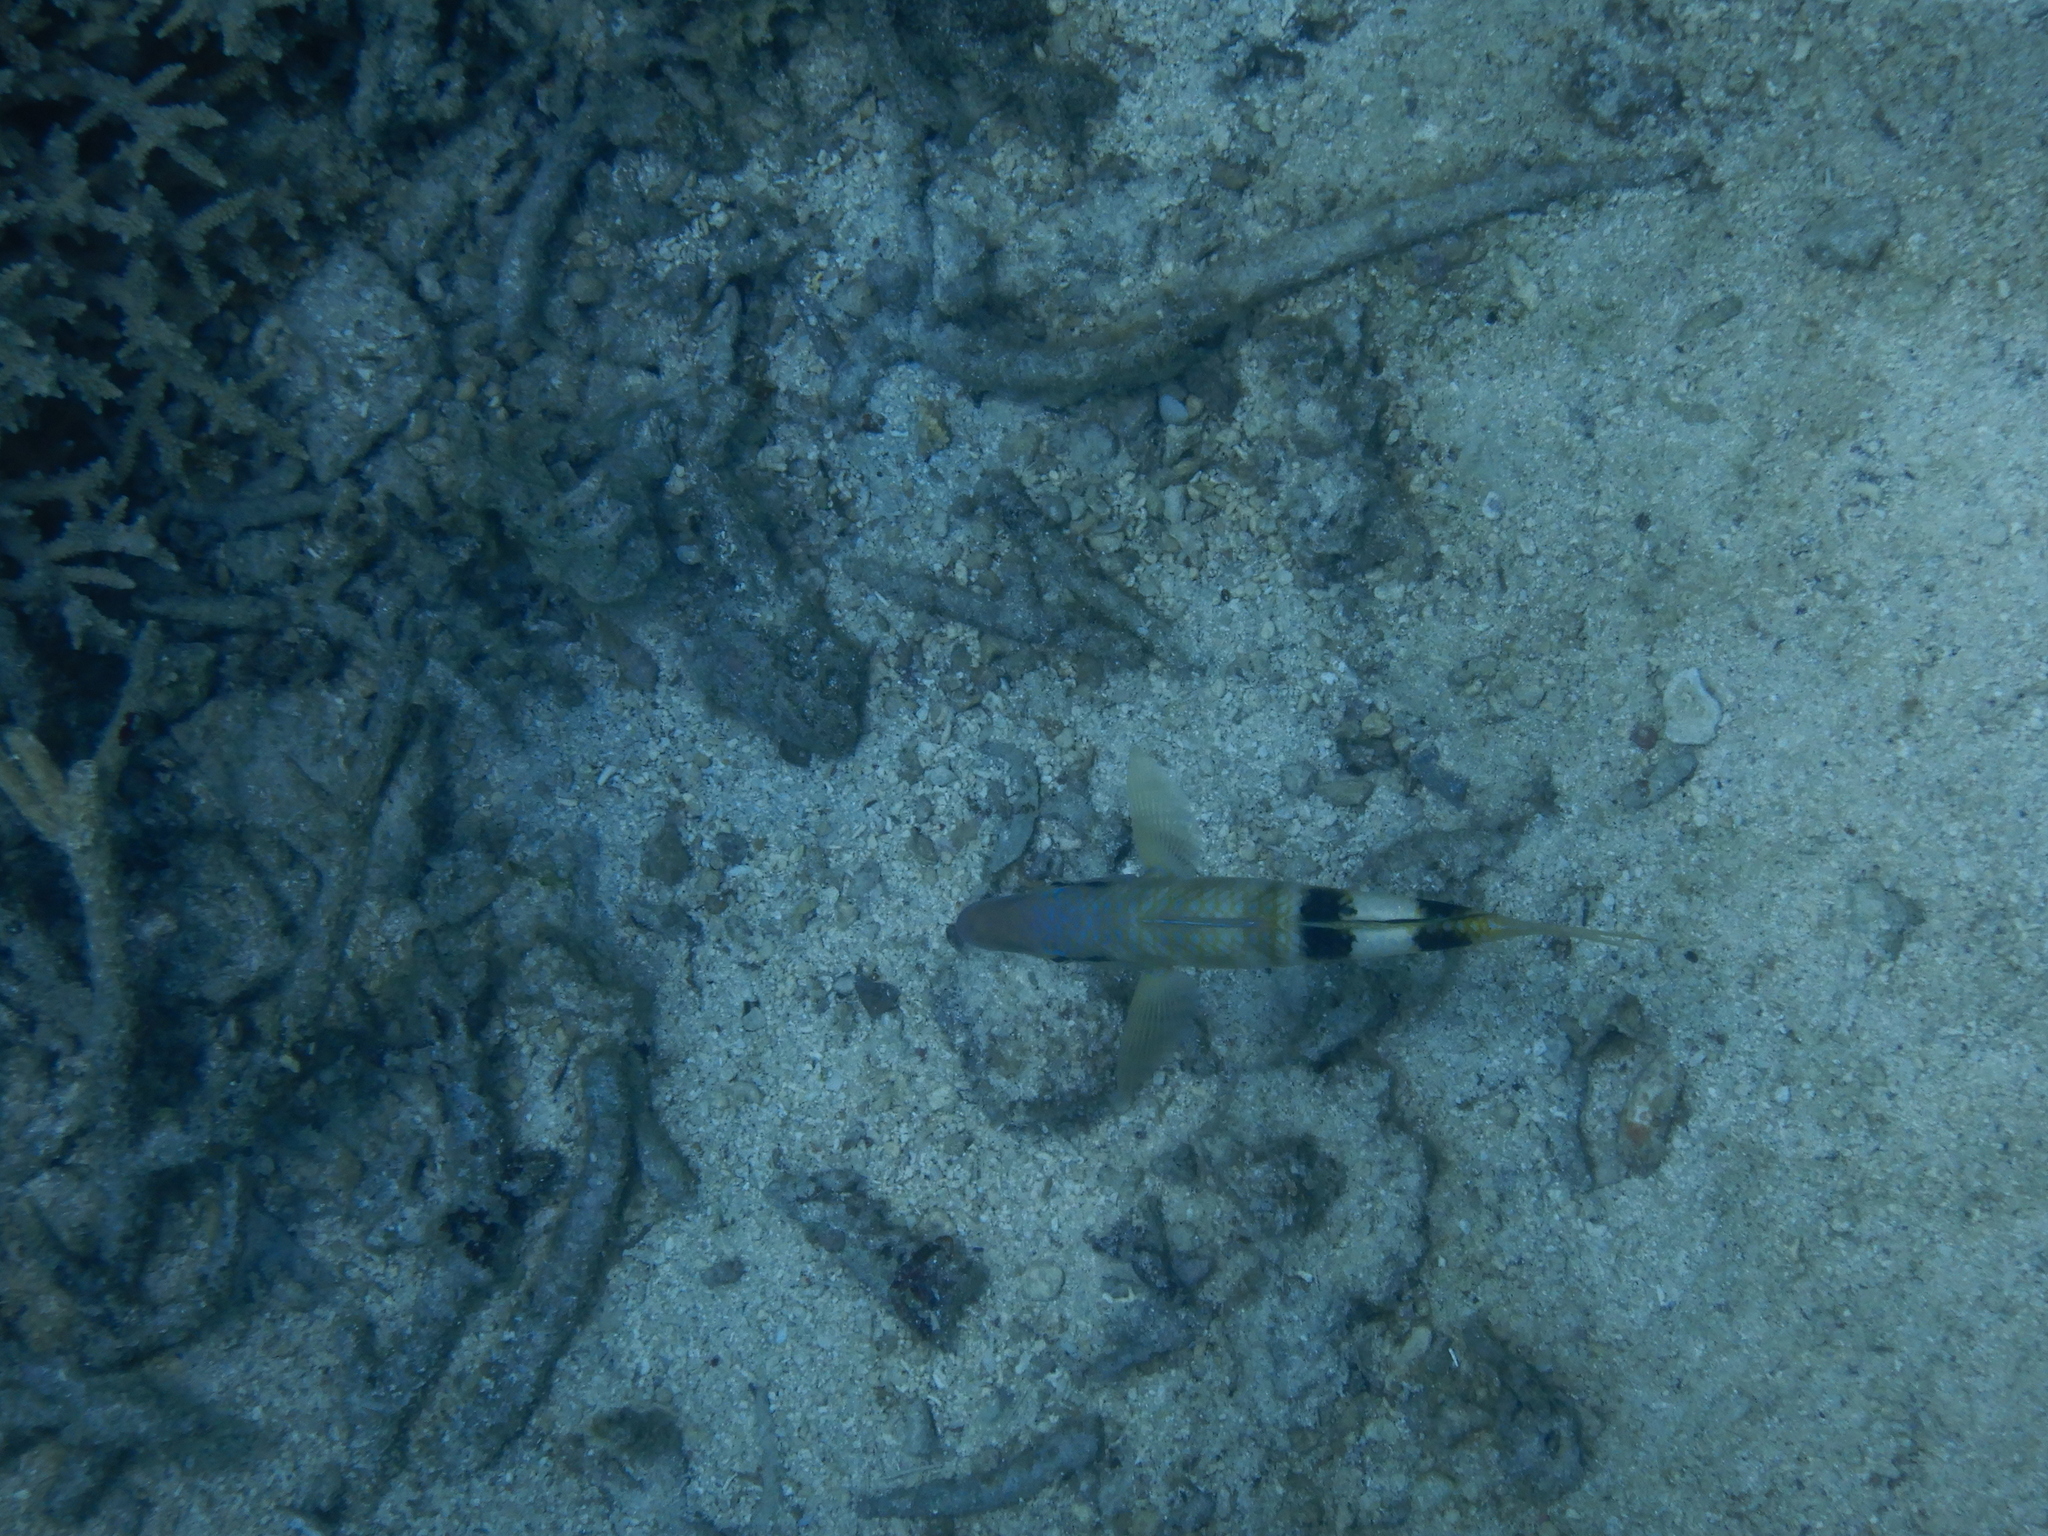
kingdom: Animalia
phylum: Chordata
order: Perciformes
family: Mullidae
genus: Parupeneus
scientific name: Parupeneus multifasciatus
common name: Manybar goatfish
